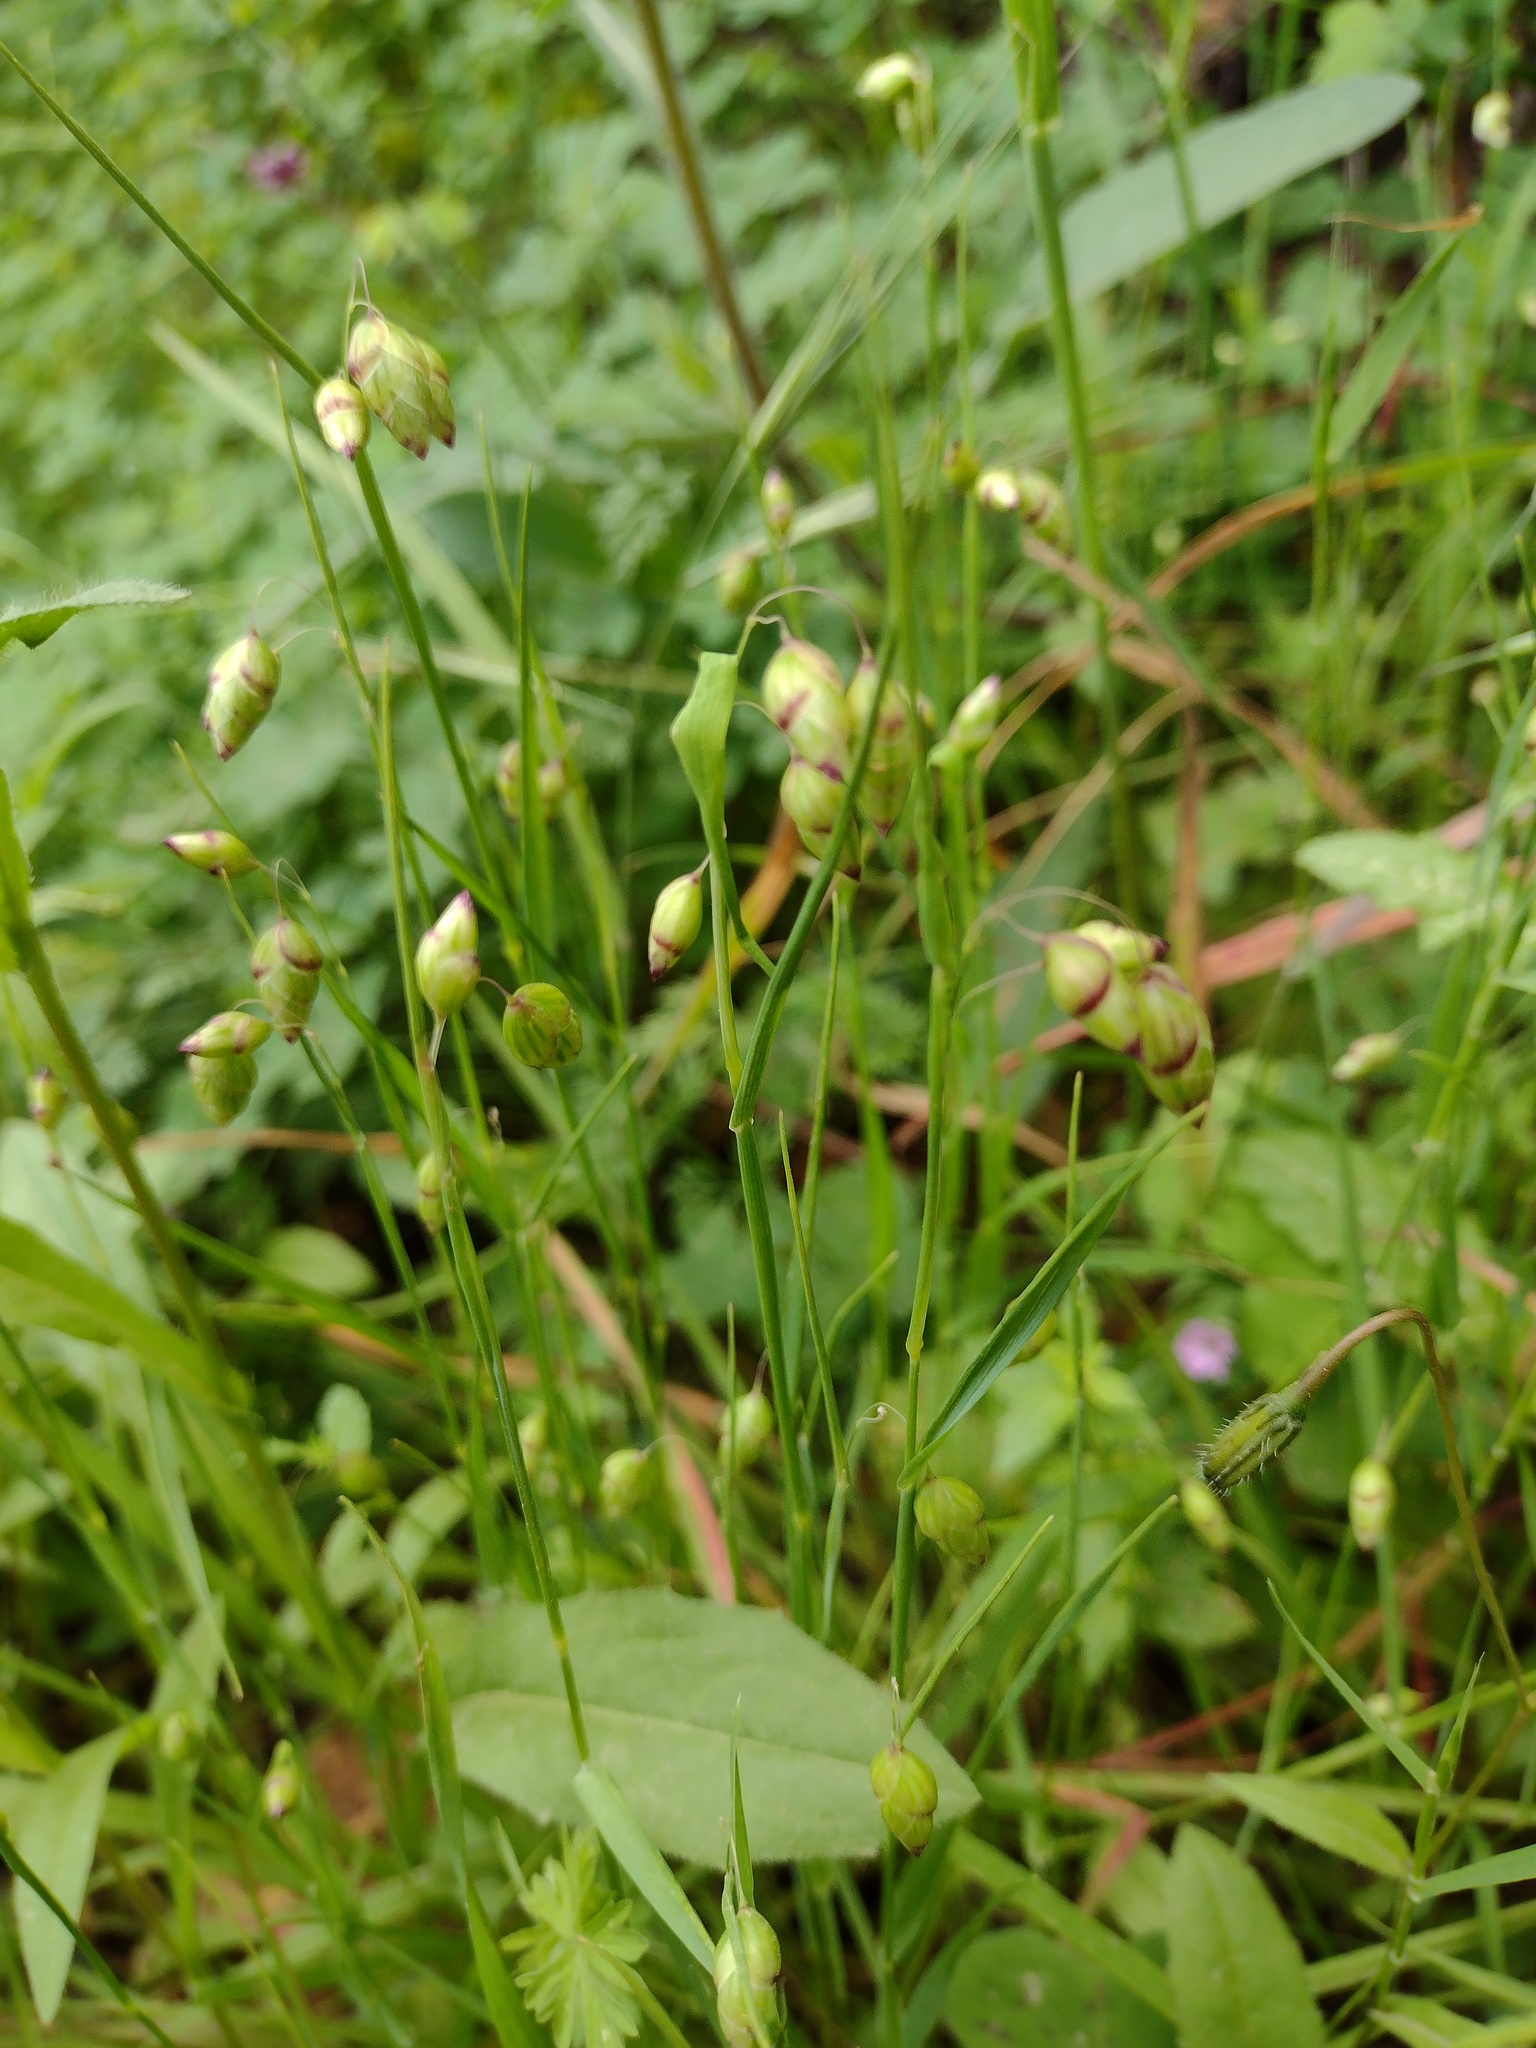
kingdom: Plantae
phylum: Tracheophyta
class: Liliopsida
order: Poales
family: Poaceae
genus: Briza
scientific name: Briza maxima
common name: Big quakinggrass
